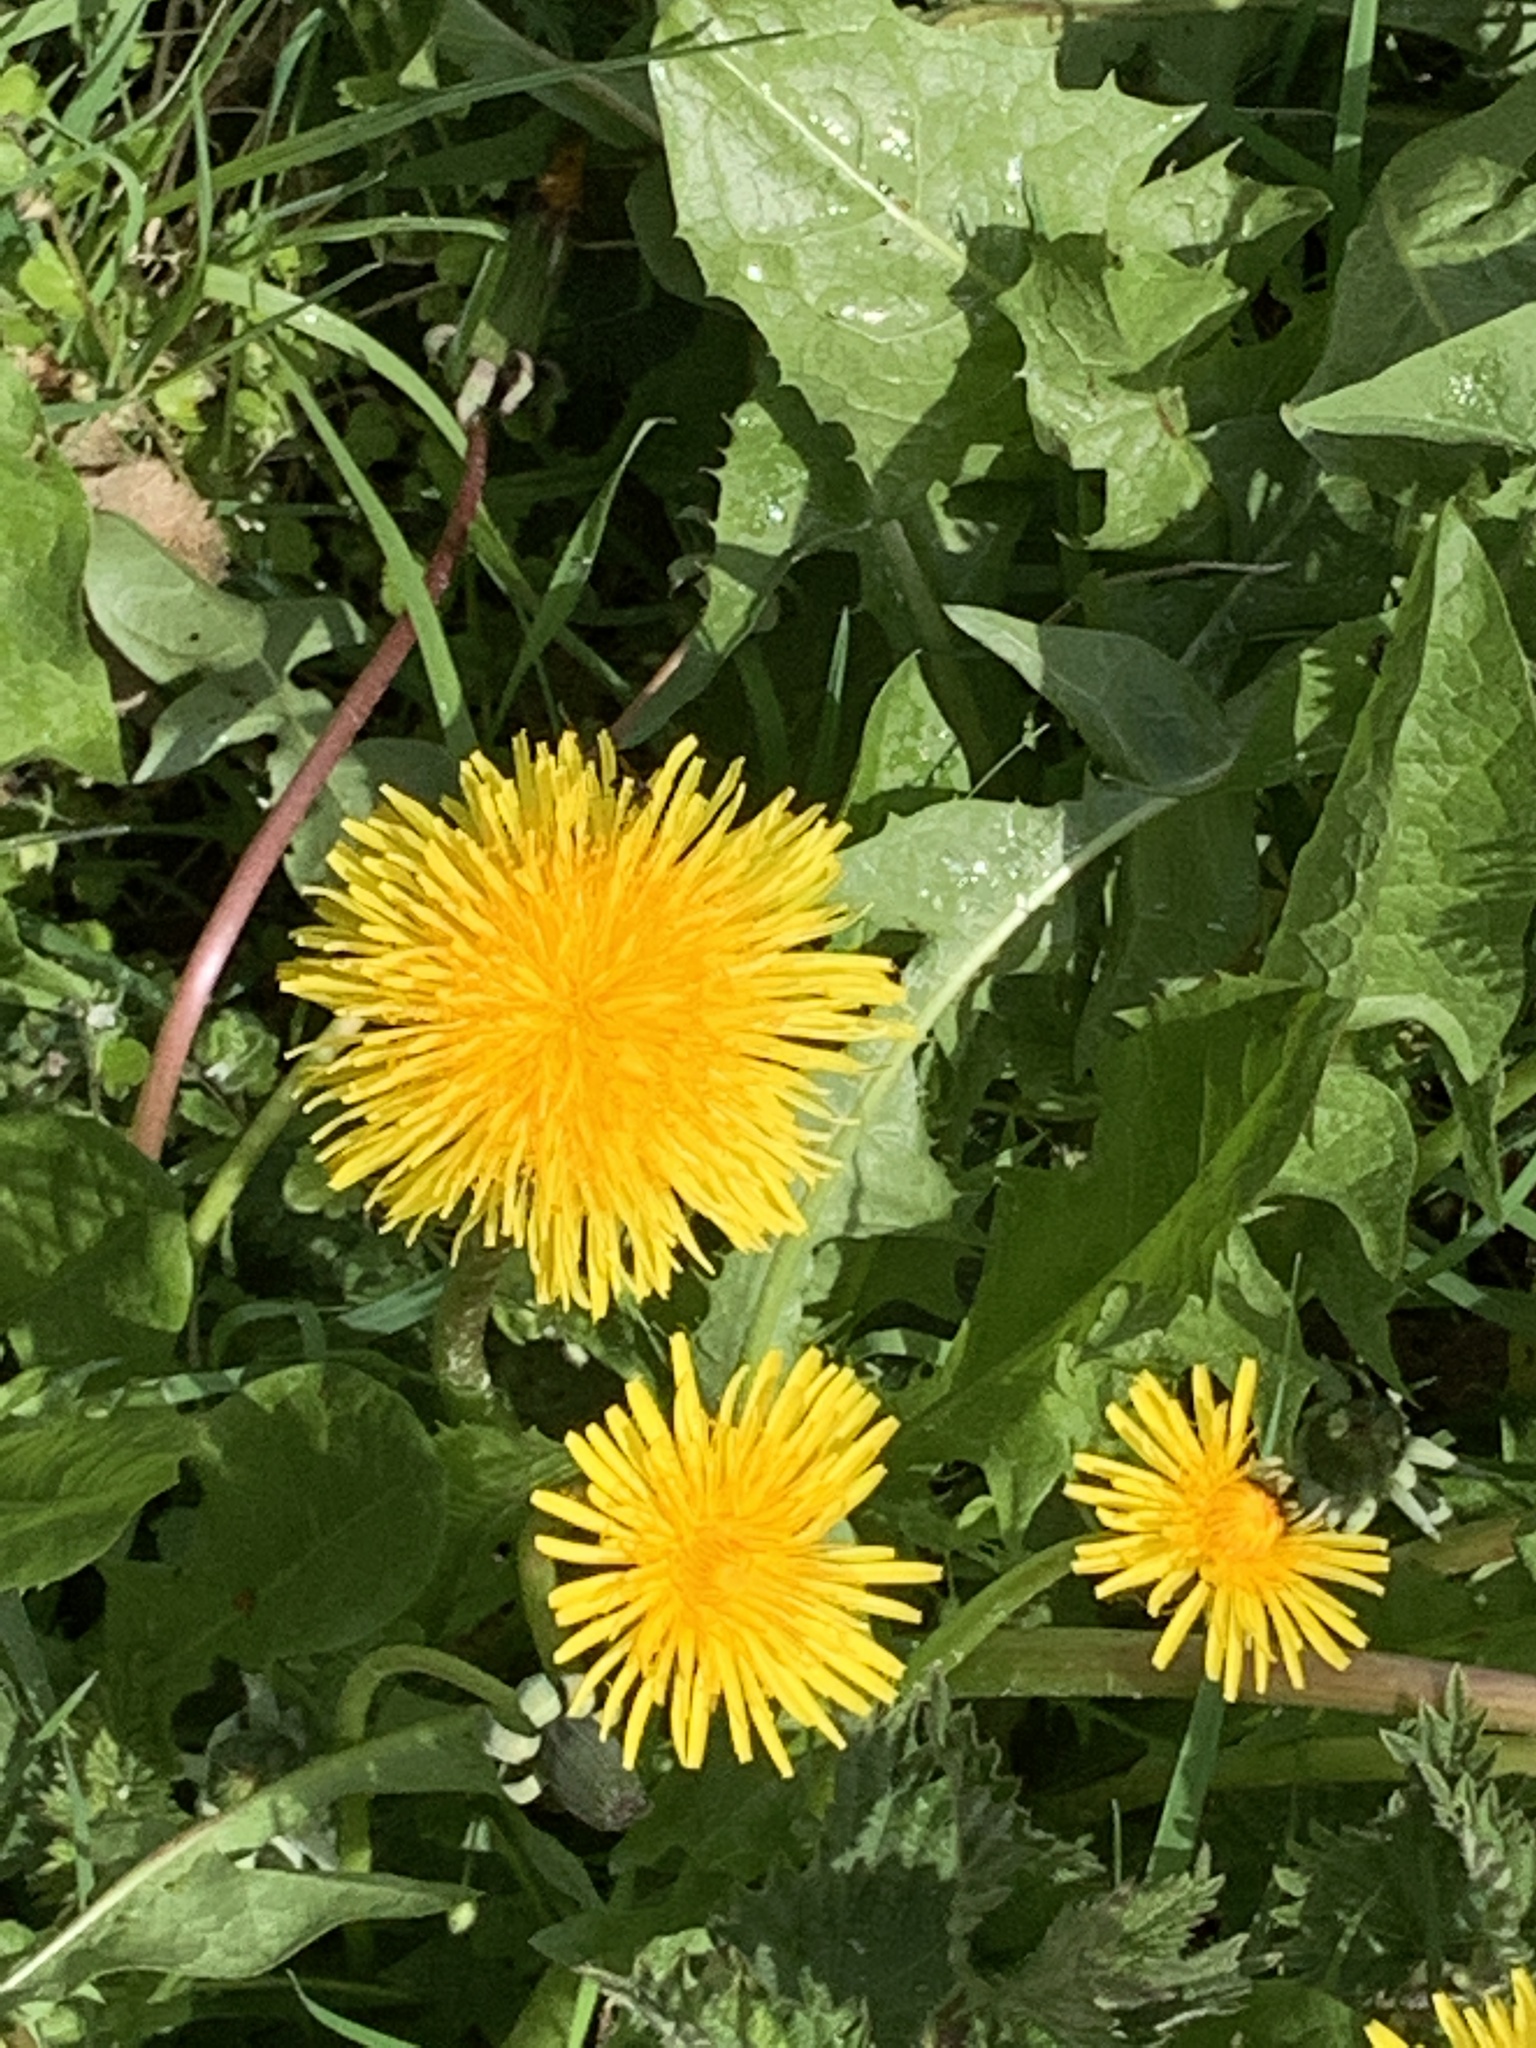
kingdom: Plantae
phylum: Tracheophyta
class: Magnoliopsida
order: Asterales
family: Asteraceae
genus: Taraxacum
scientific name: Taraxacum officinale
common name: Common dandelion
